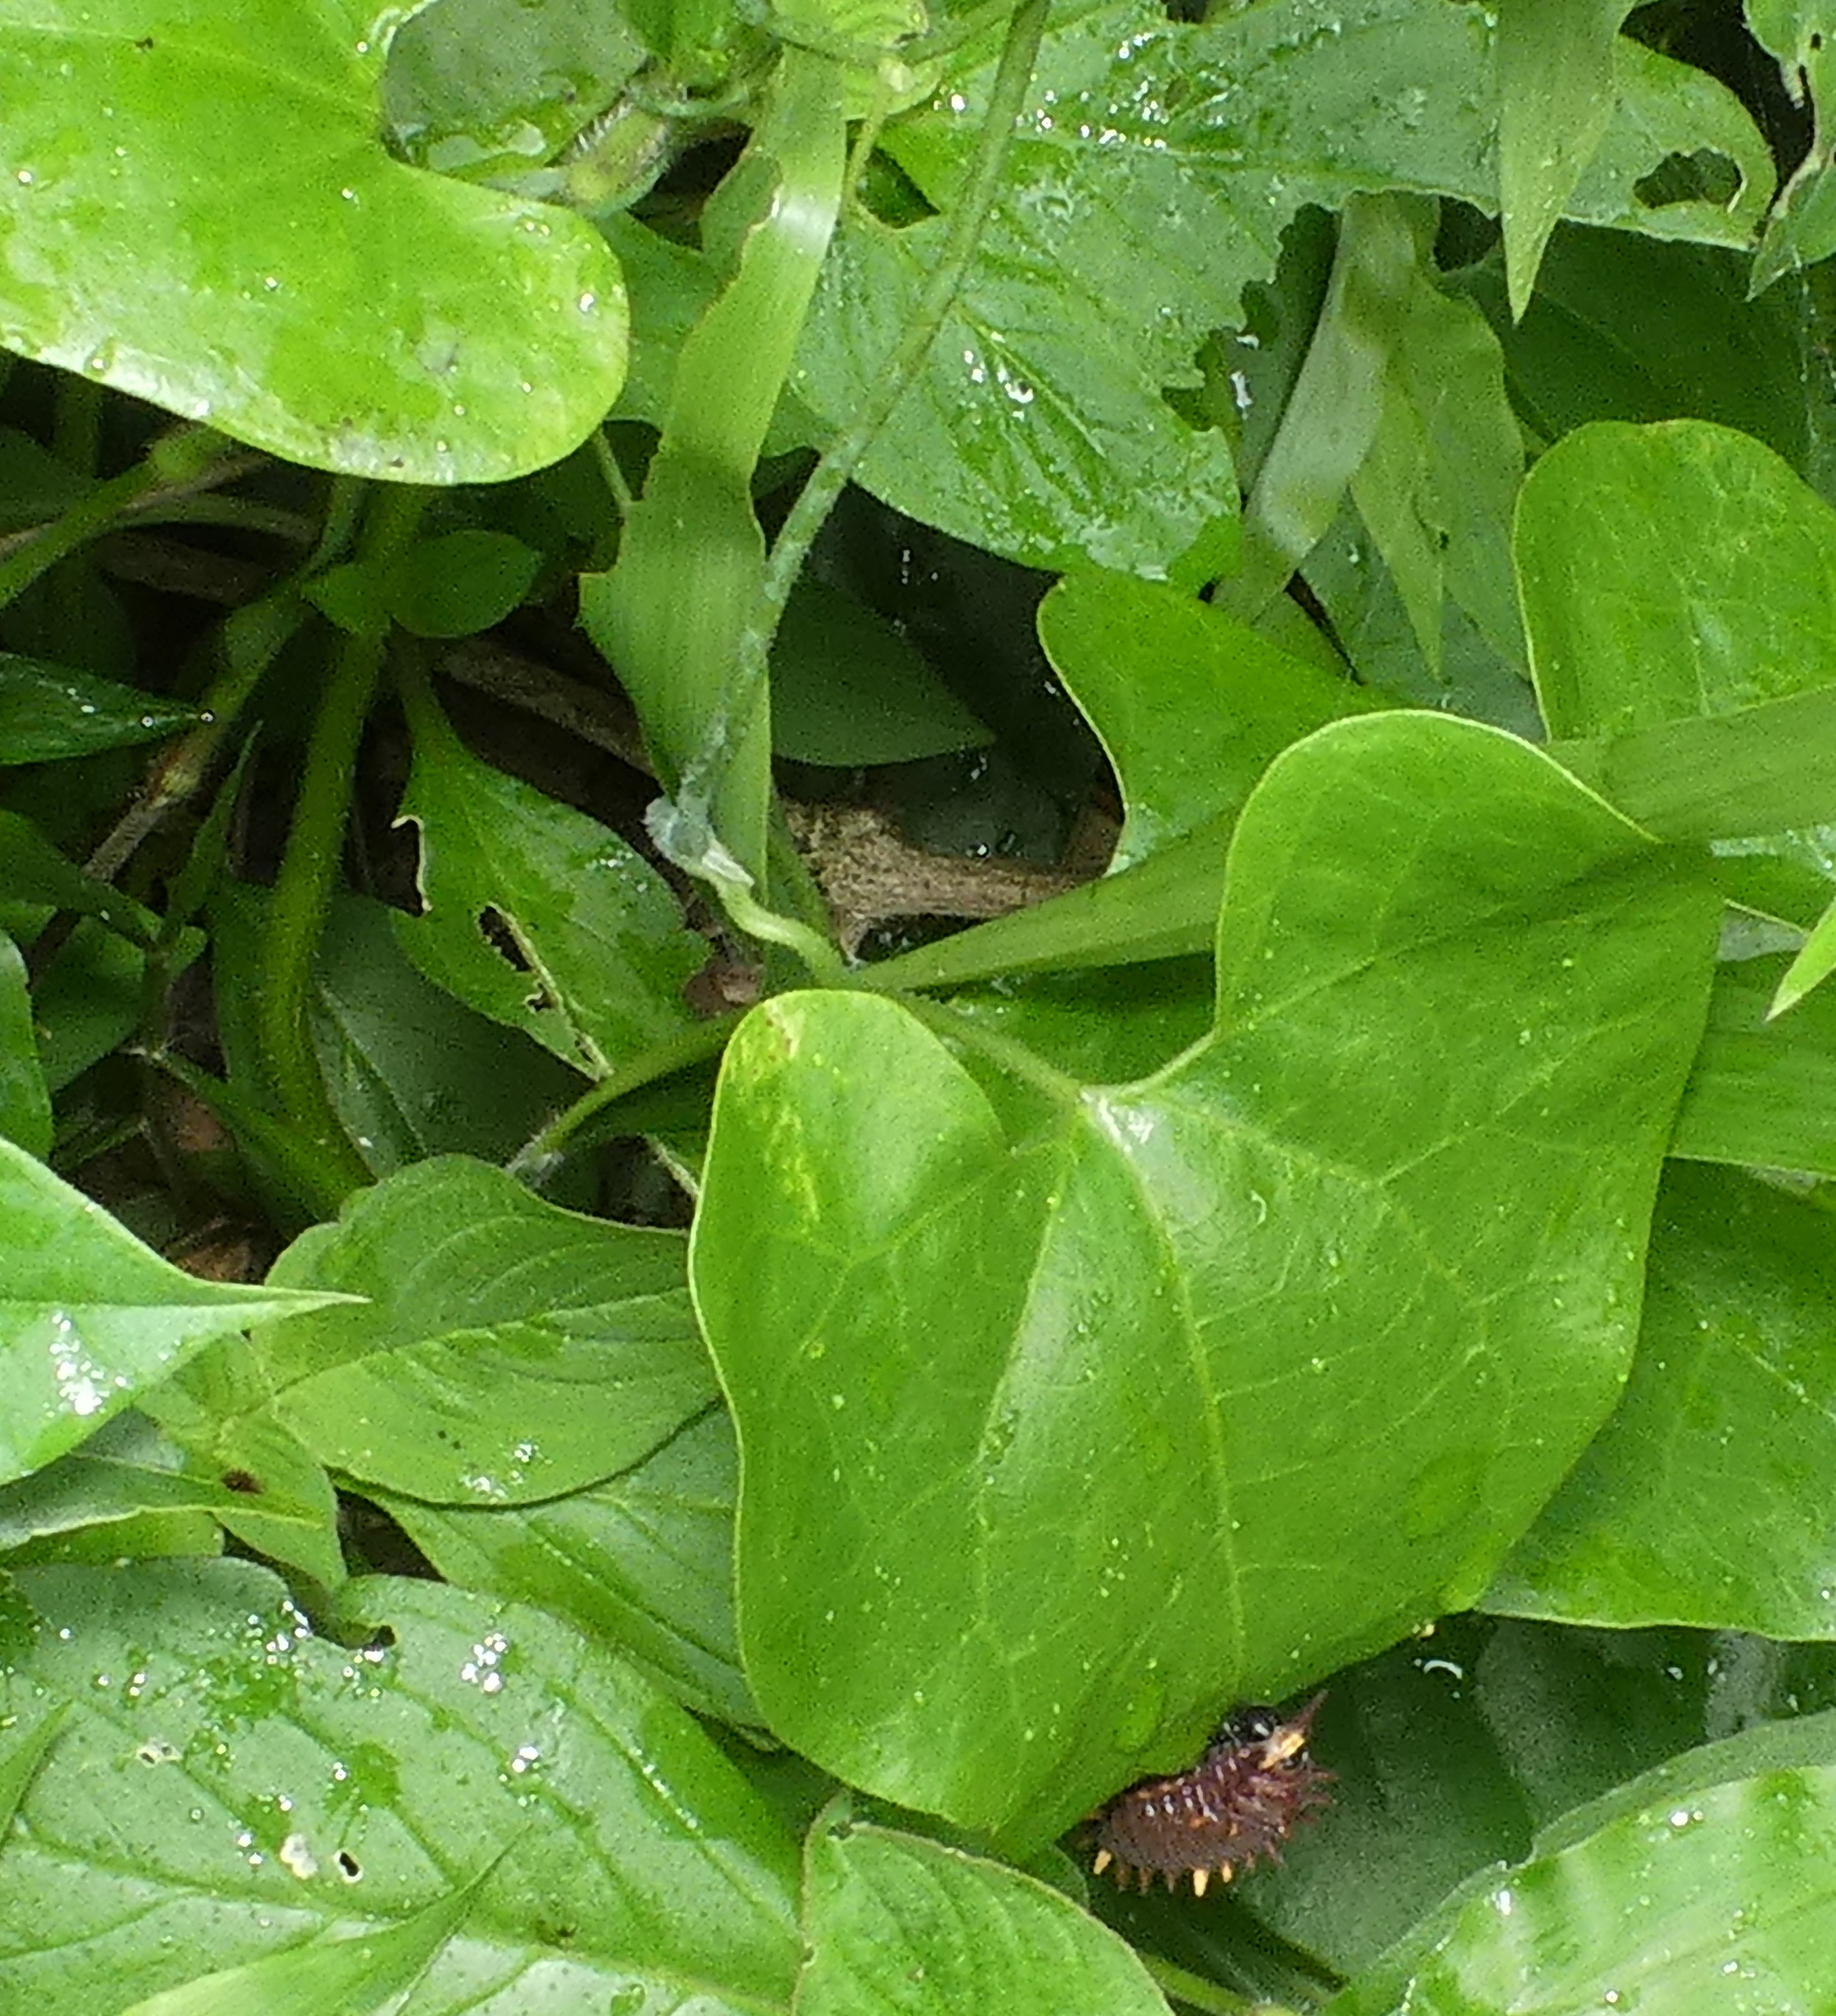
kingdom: Animalia
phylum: Arthropoda
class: Insecta
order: Lepidoptera
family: Papilionidae
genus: Battus
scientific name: Battus polydamas
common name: Polydamas swallowtail
